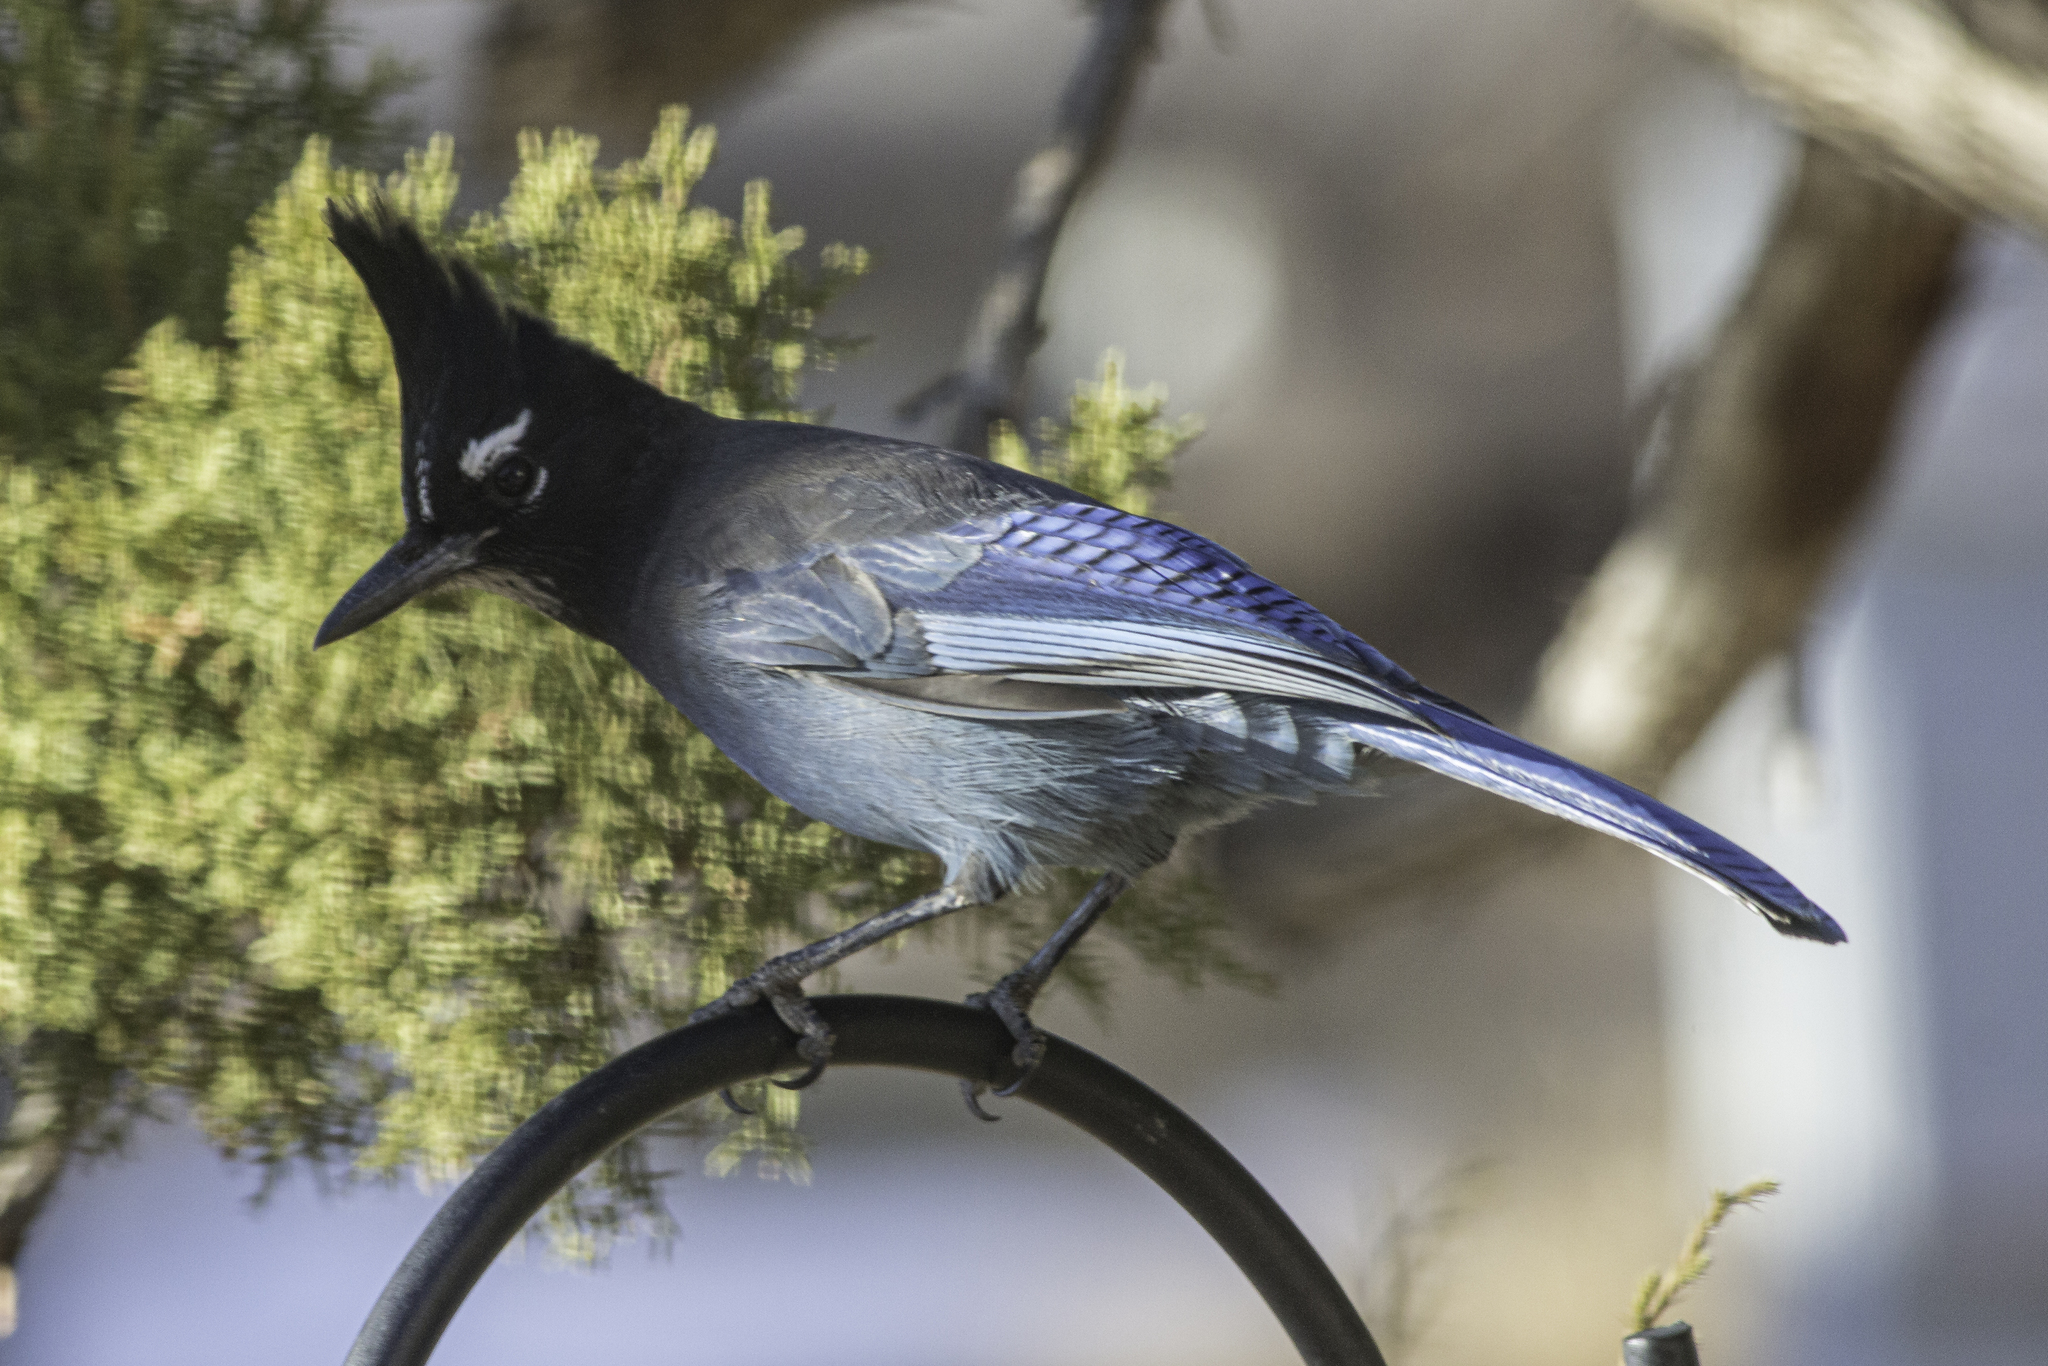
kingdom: Animalia
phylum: Chordata
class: Aves
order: Passeriformes
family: Corvidae
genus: Cyanocitta
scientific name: Cyanocitta stelleri
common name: Steller's jay
